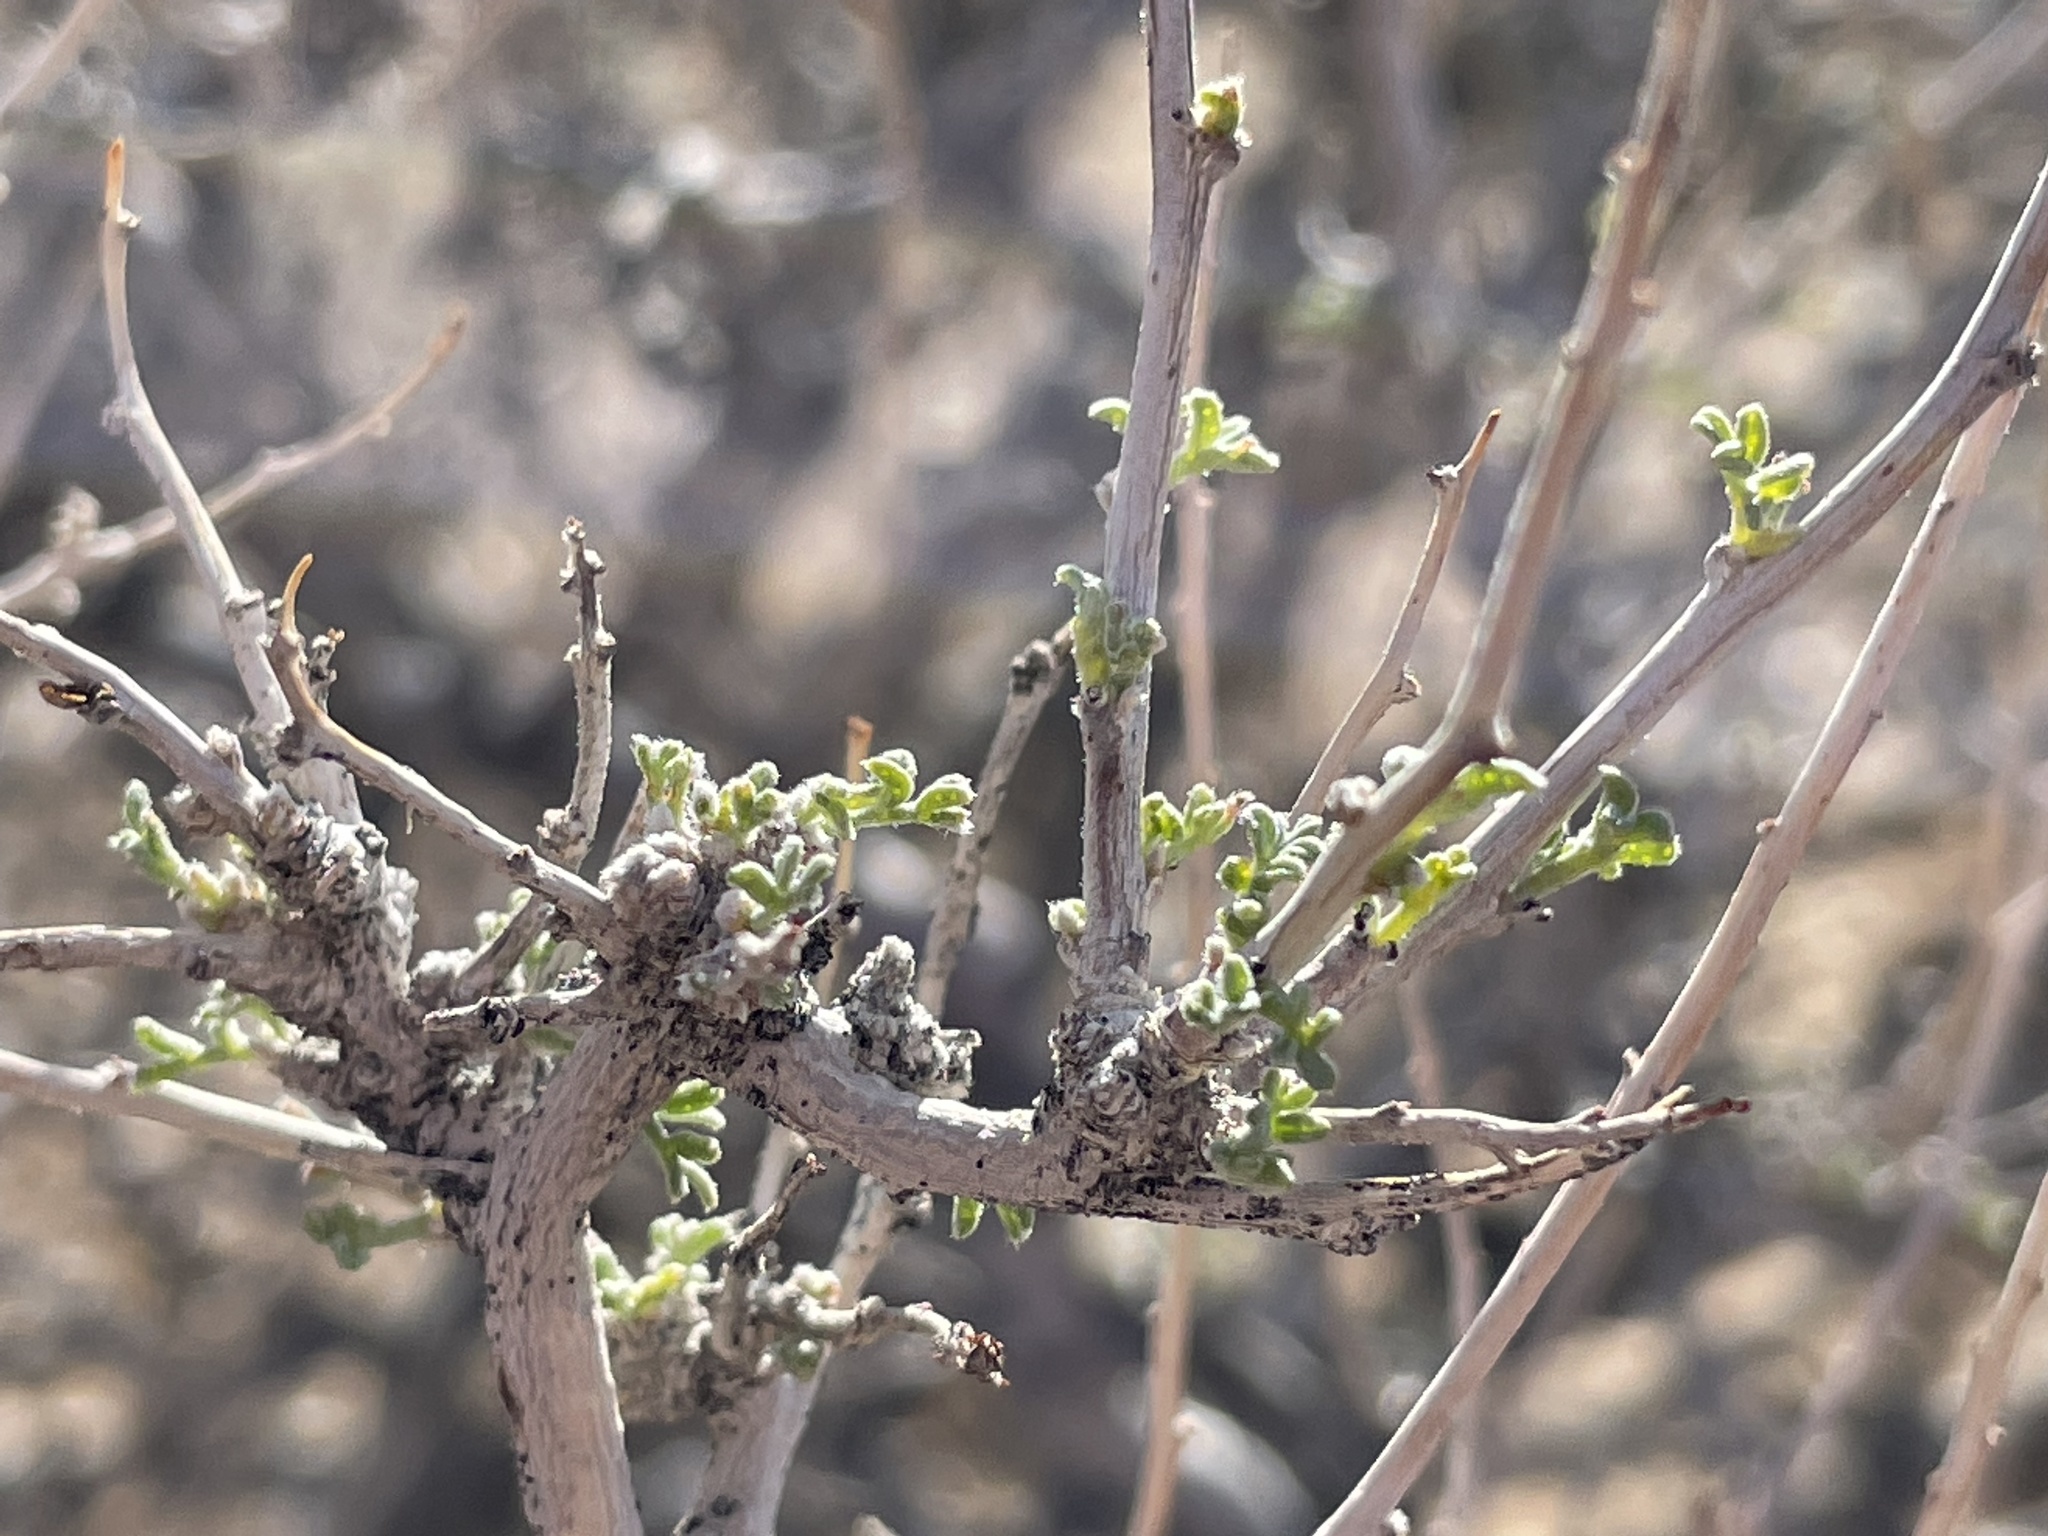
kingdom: Plantae
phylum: Tracheophyta
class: Magnoliopsida
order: Fabales
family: Fabaceae
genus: Psorothamnus
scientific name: Psorothamnus fremontii
